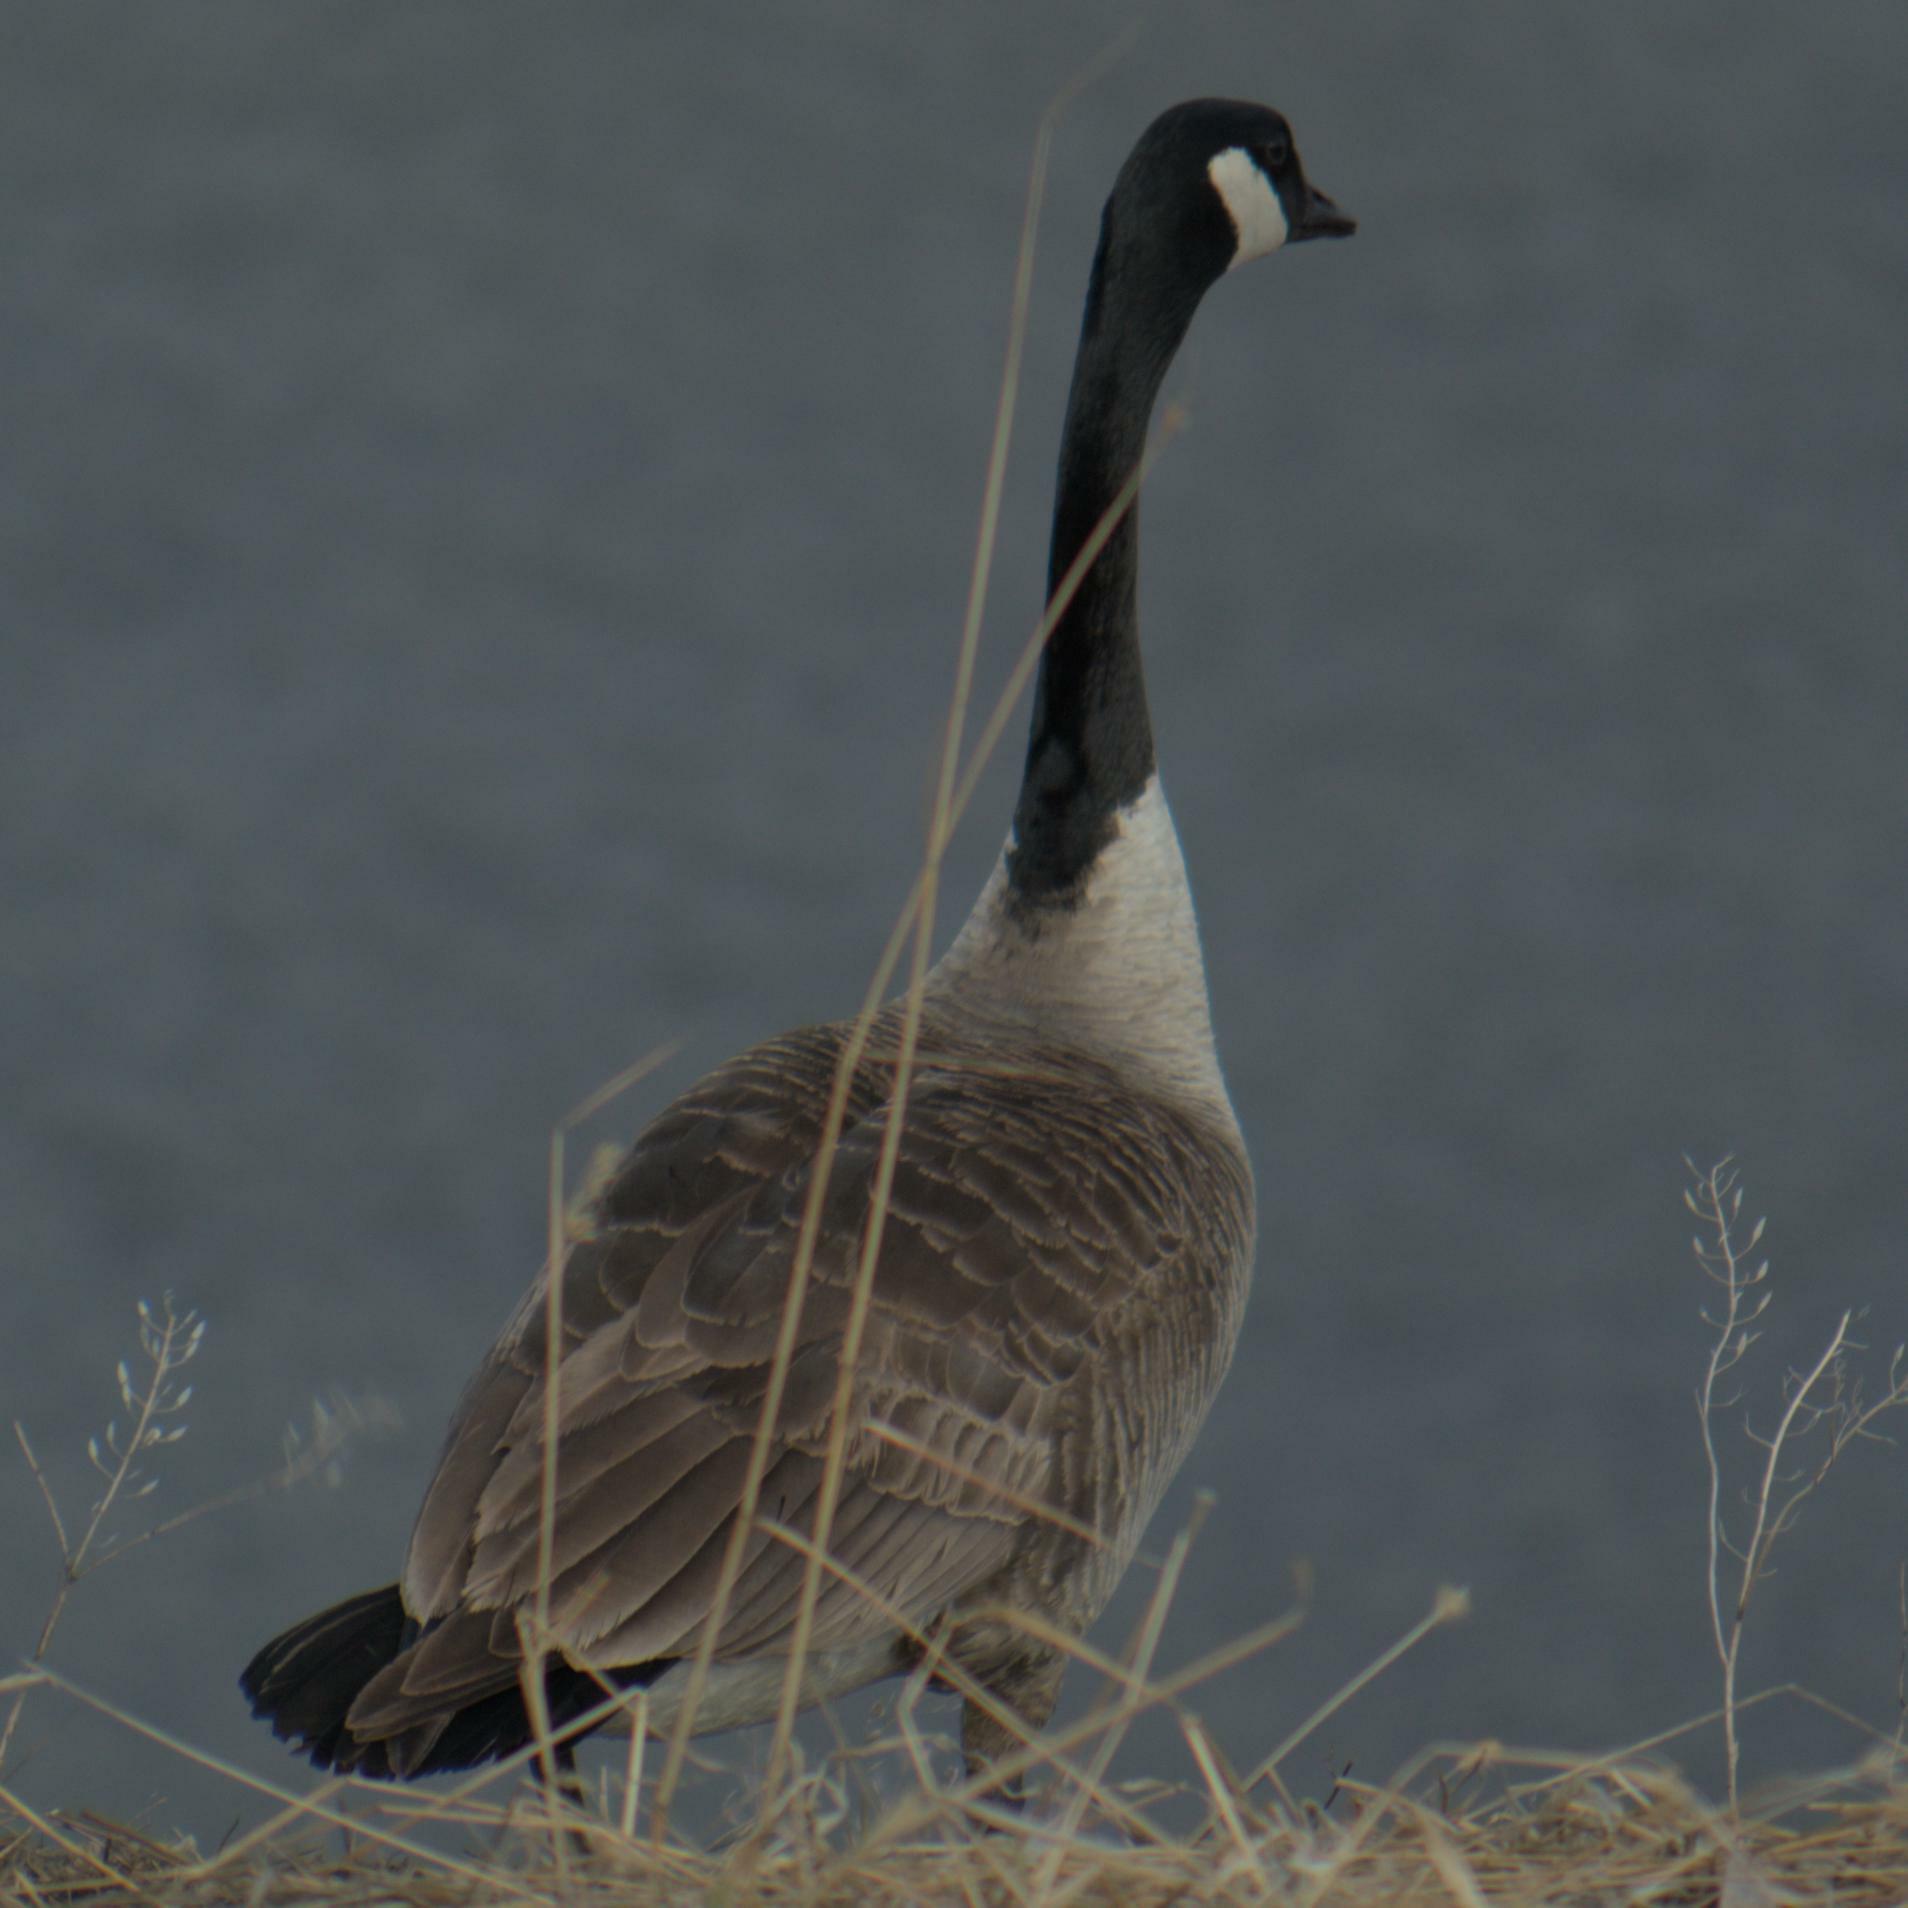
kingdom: Animalia
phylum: Chordata
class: Aves
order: Anseriformes
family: Anatidae
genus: Branta
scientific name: Branta canadensis
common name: Canada goose
